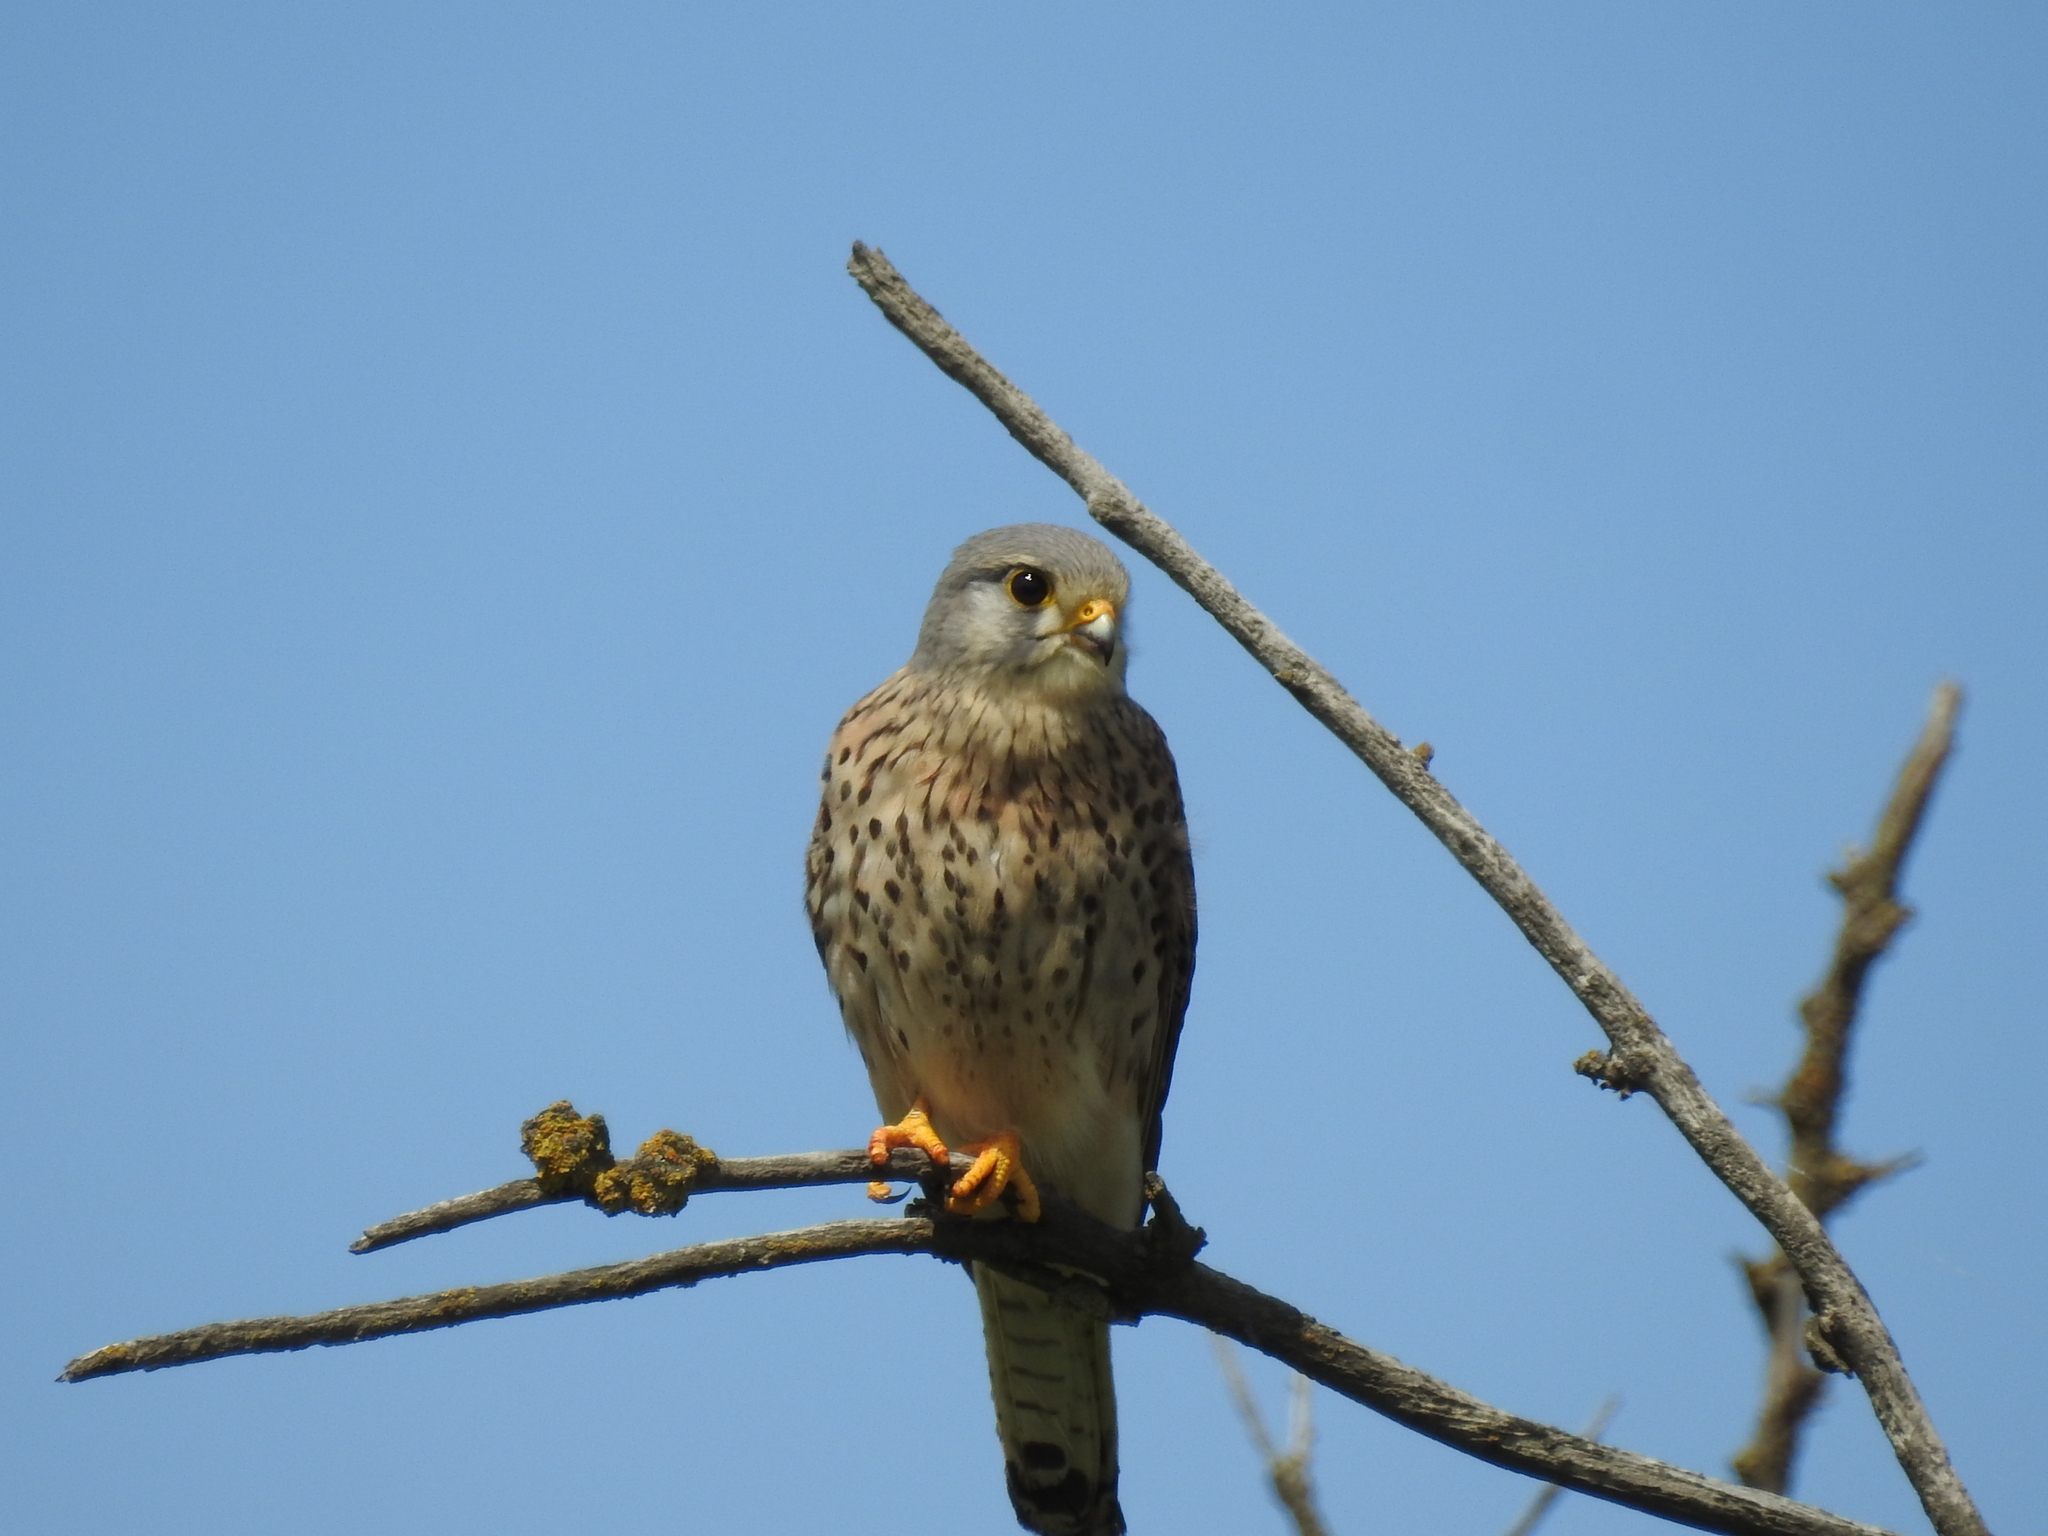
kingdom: Animalia
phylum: Chordata
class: Aves
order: Falconiformes
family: Falconidae
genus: Falco
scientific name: Falco tinnunculus
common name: Common kestrel
